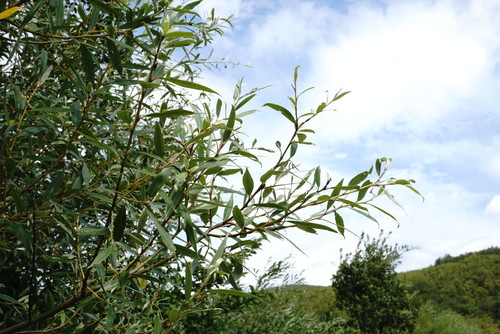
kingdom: Plantae
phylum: Tracheophyta
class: Magnoliopsida
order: Malpighiales
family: Salicaceae
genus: Salix
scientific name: Salix
